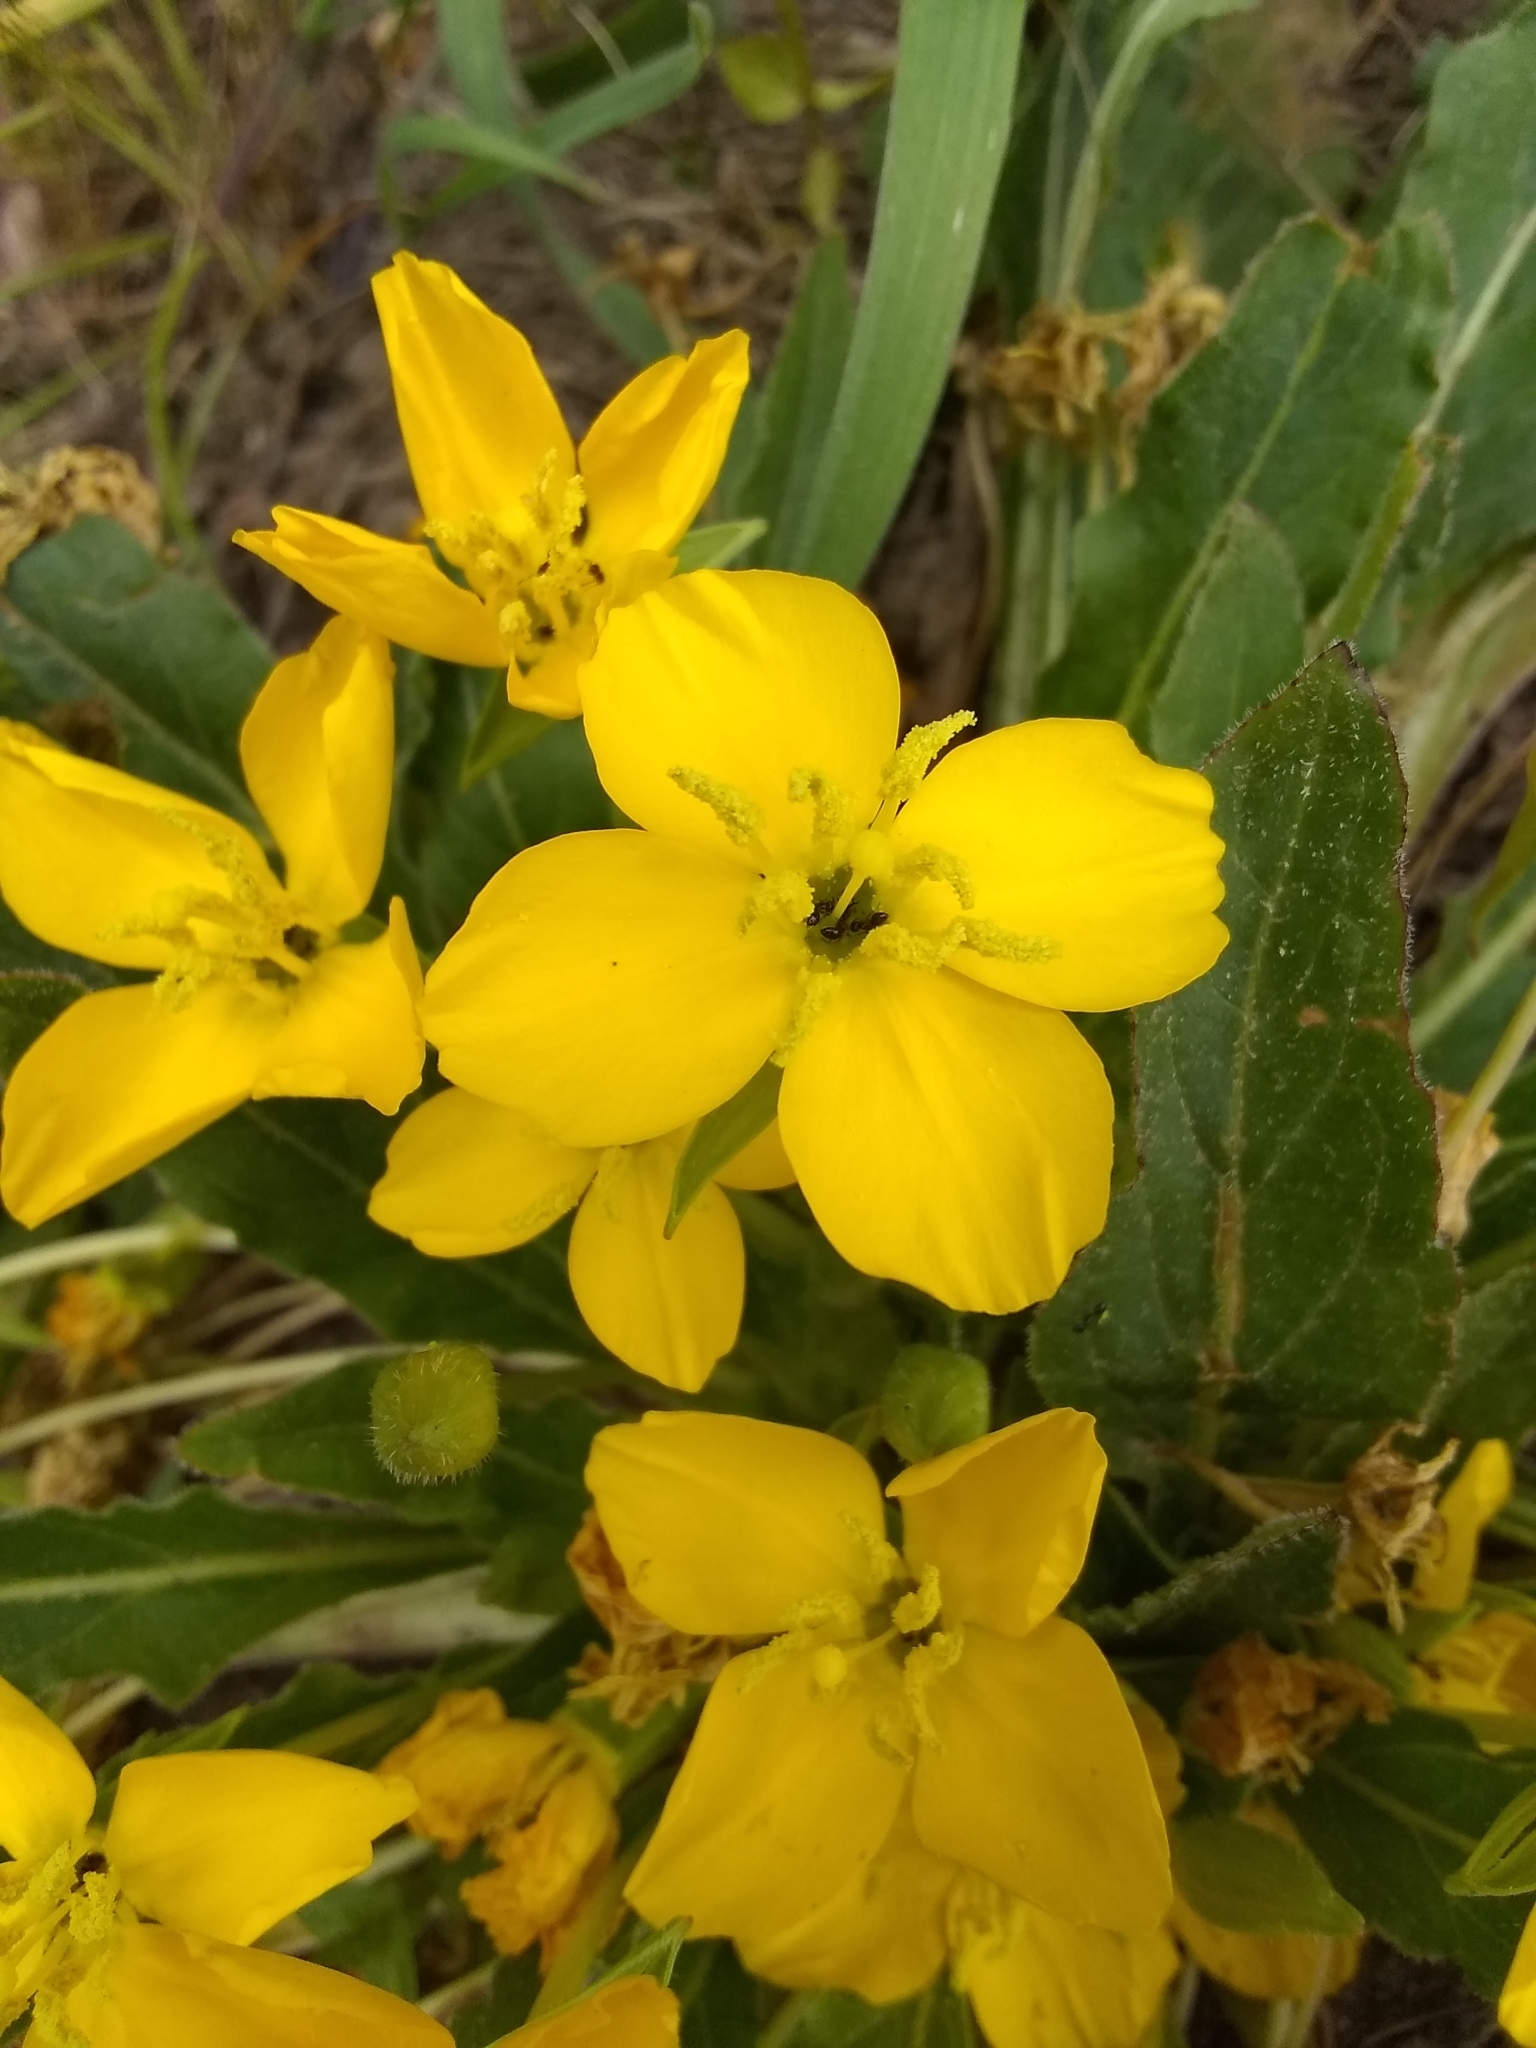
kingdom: Plantae
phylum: Tracheophyta
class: Magnoliopsida
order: Myrtales
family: Onagraceae
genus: Taraxia
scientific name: Taraxia ovata
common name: Goldeneggs
